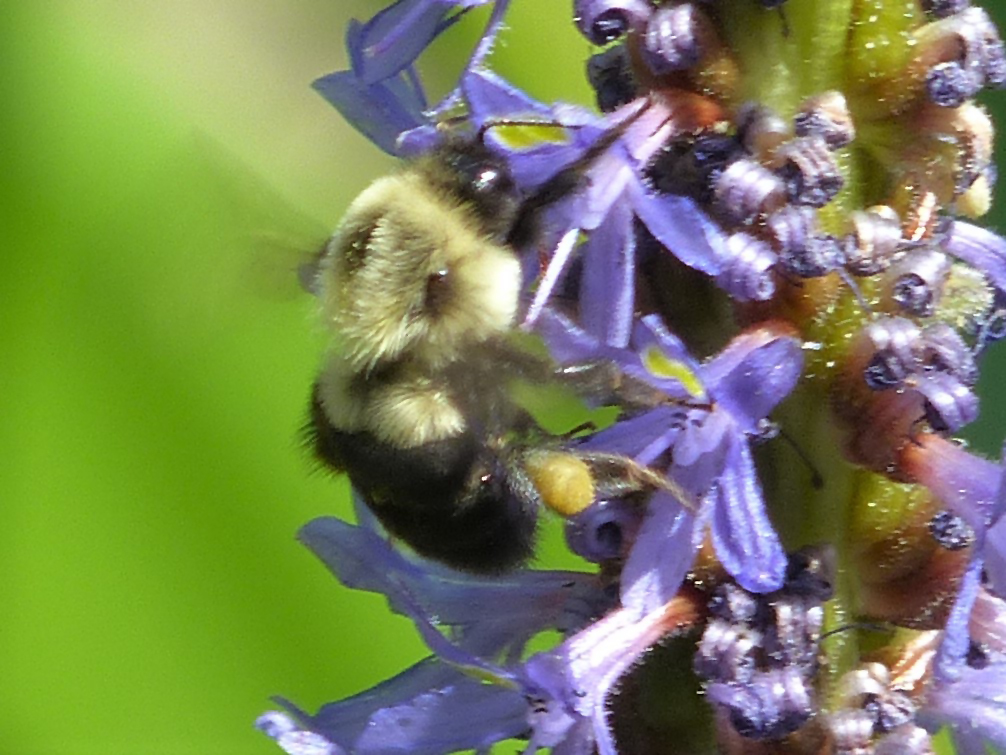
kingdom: Animalia
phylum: Arthropoda
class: Insecta
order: Hymenoptera
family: Apidae
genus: Bombus
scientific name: Bombus impatiens
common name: Common eastern bumble bee
